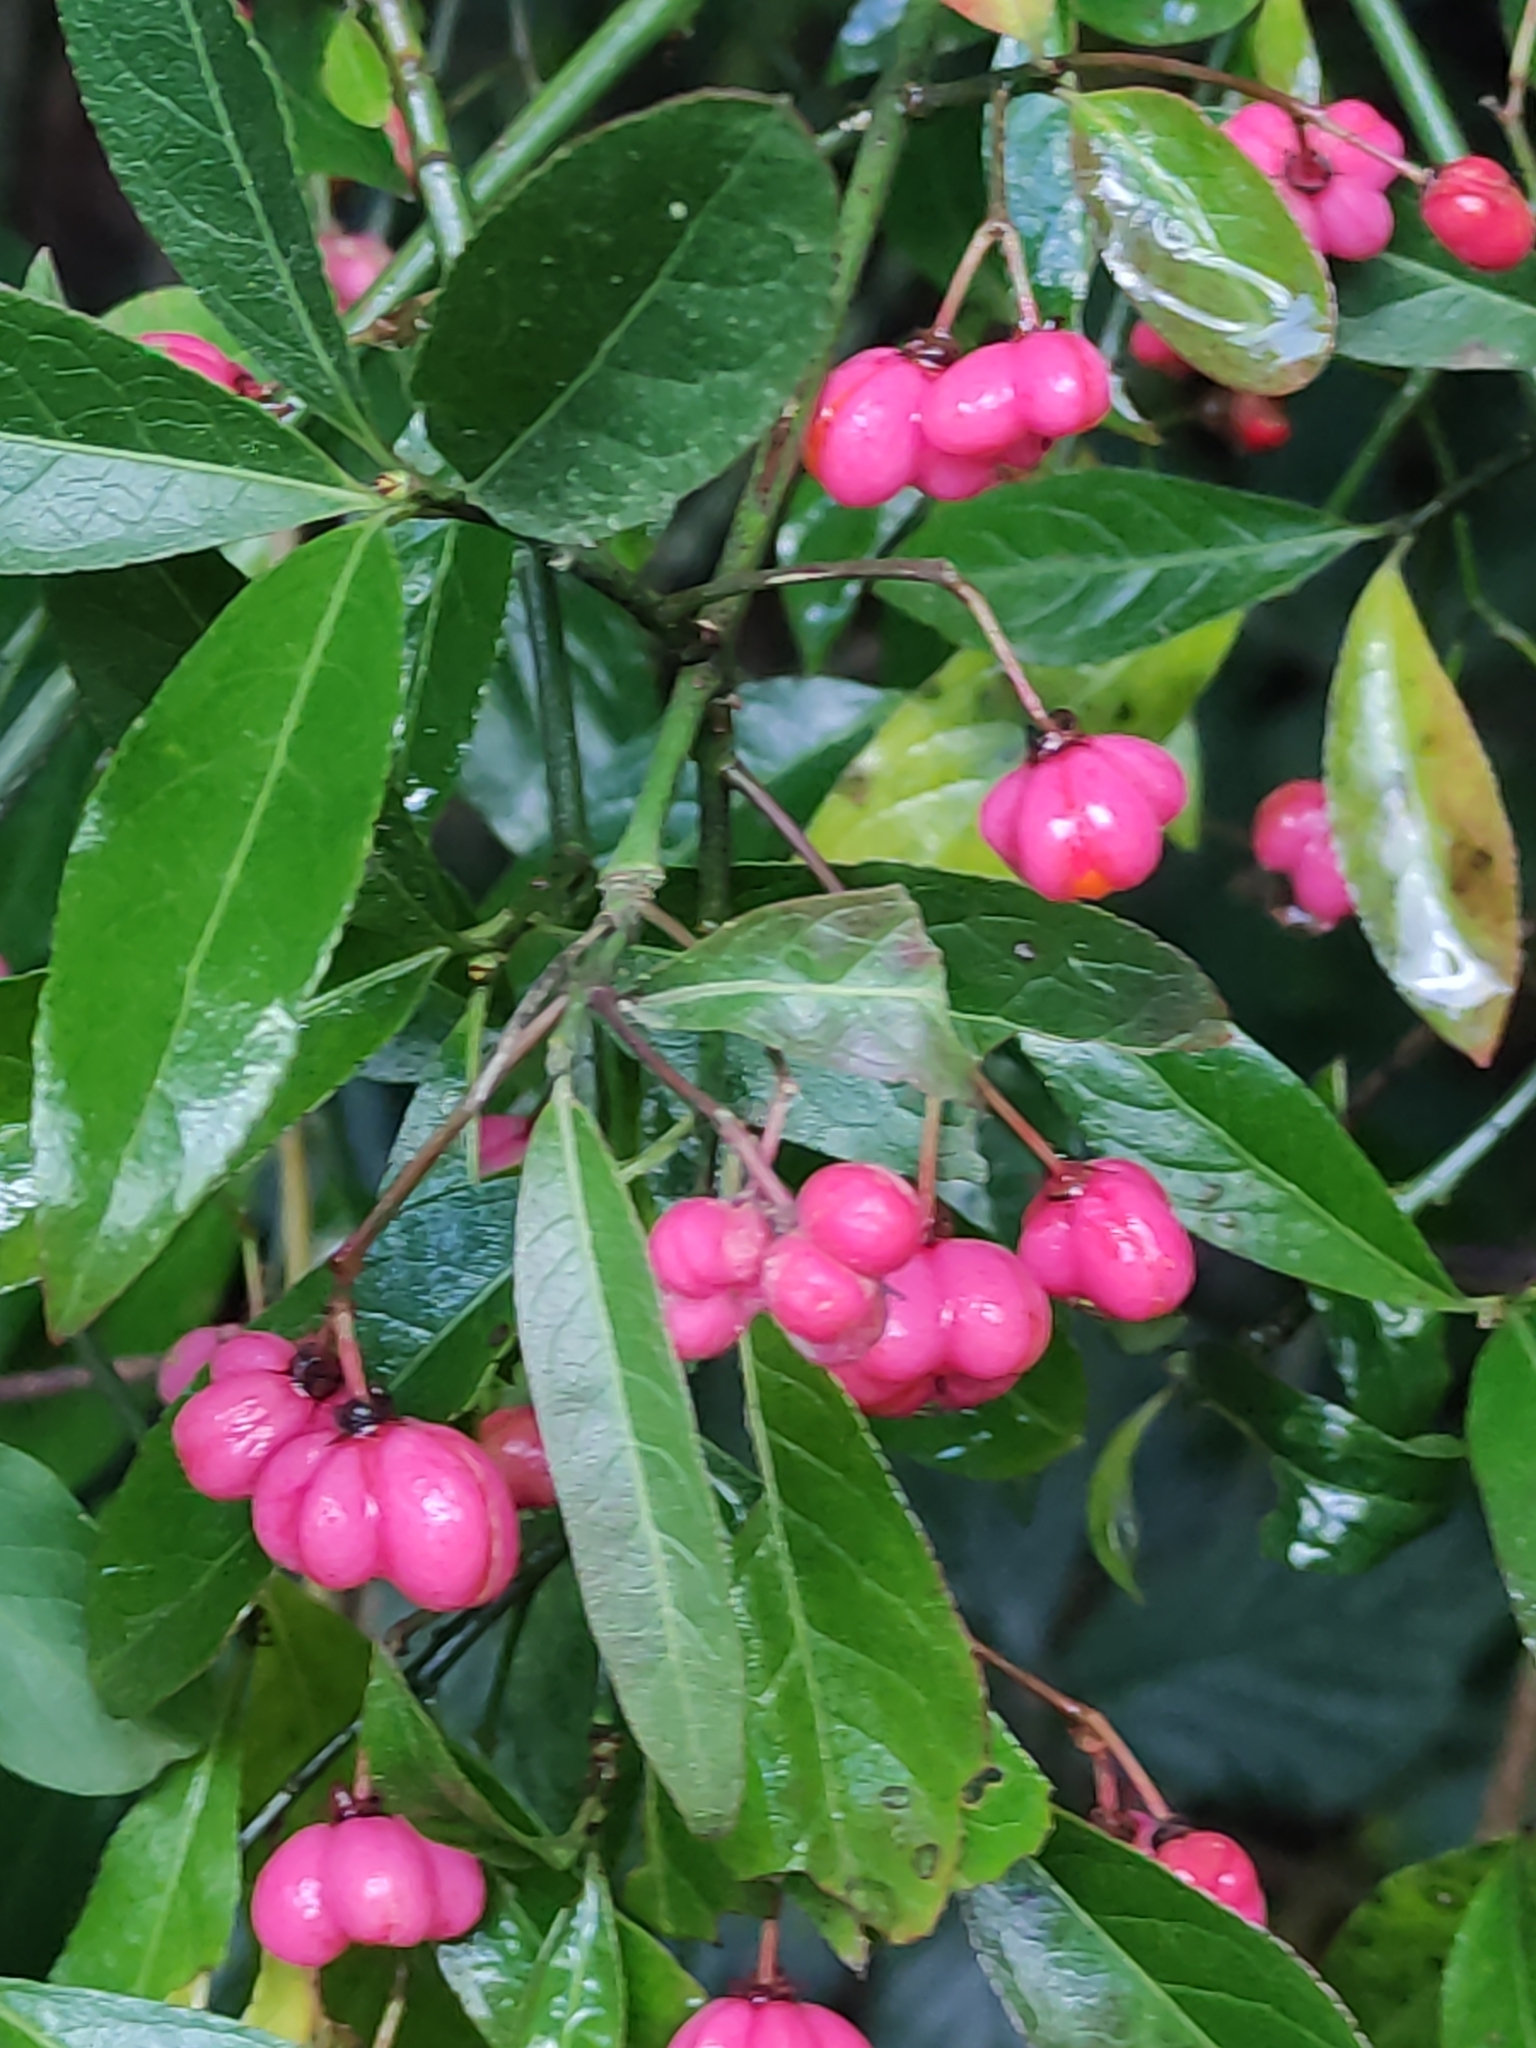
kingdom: Plantae
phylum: Tracheophyta
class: Magnoliopsida
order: Celastrales
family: Celastraceae
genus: Euonymus
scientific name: Euonymus europaeus
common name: Spindle
